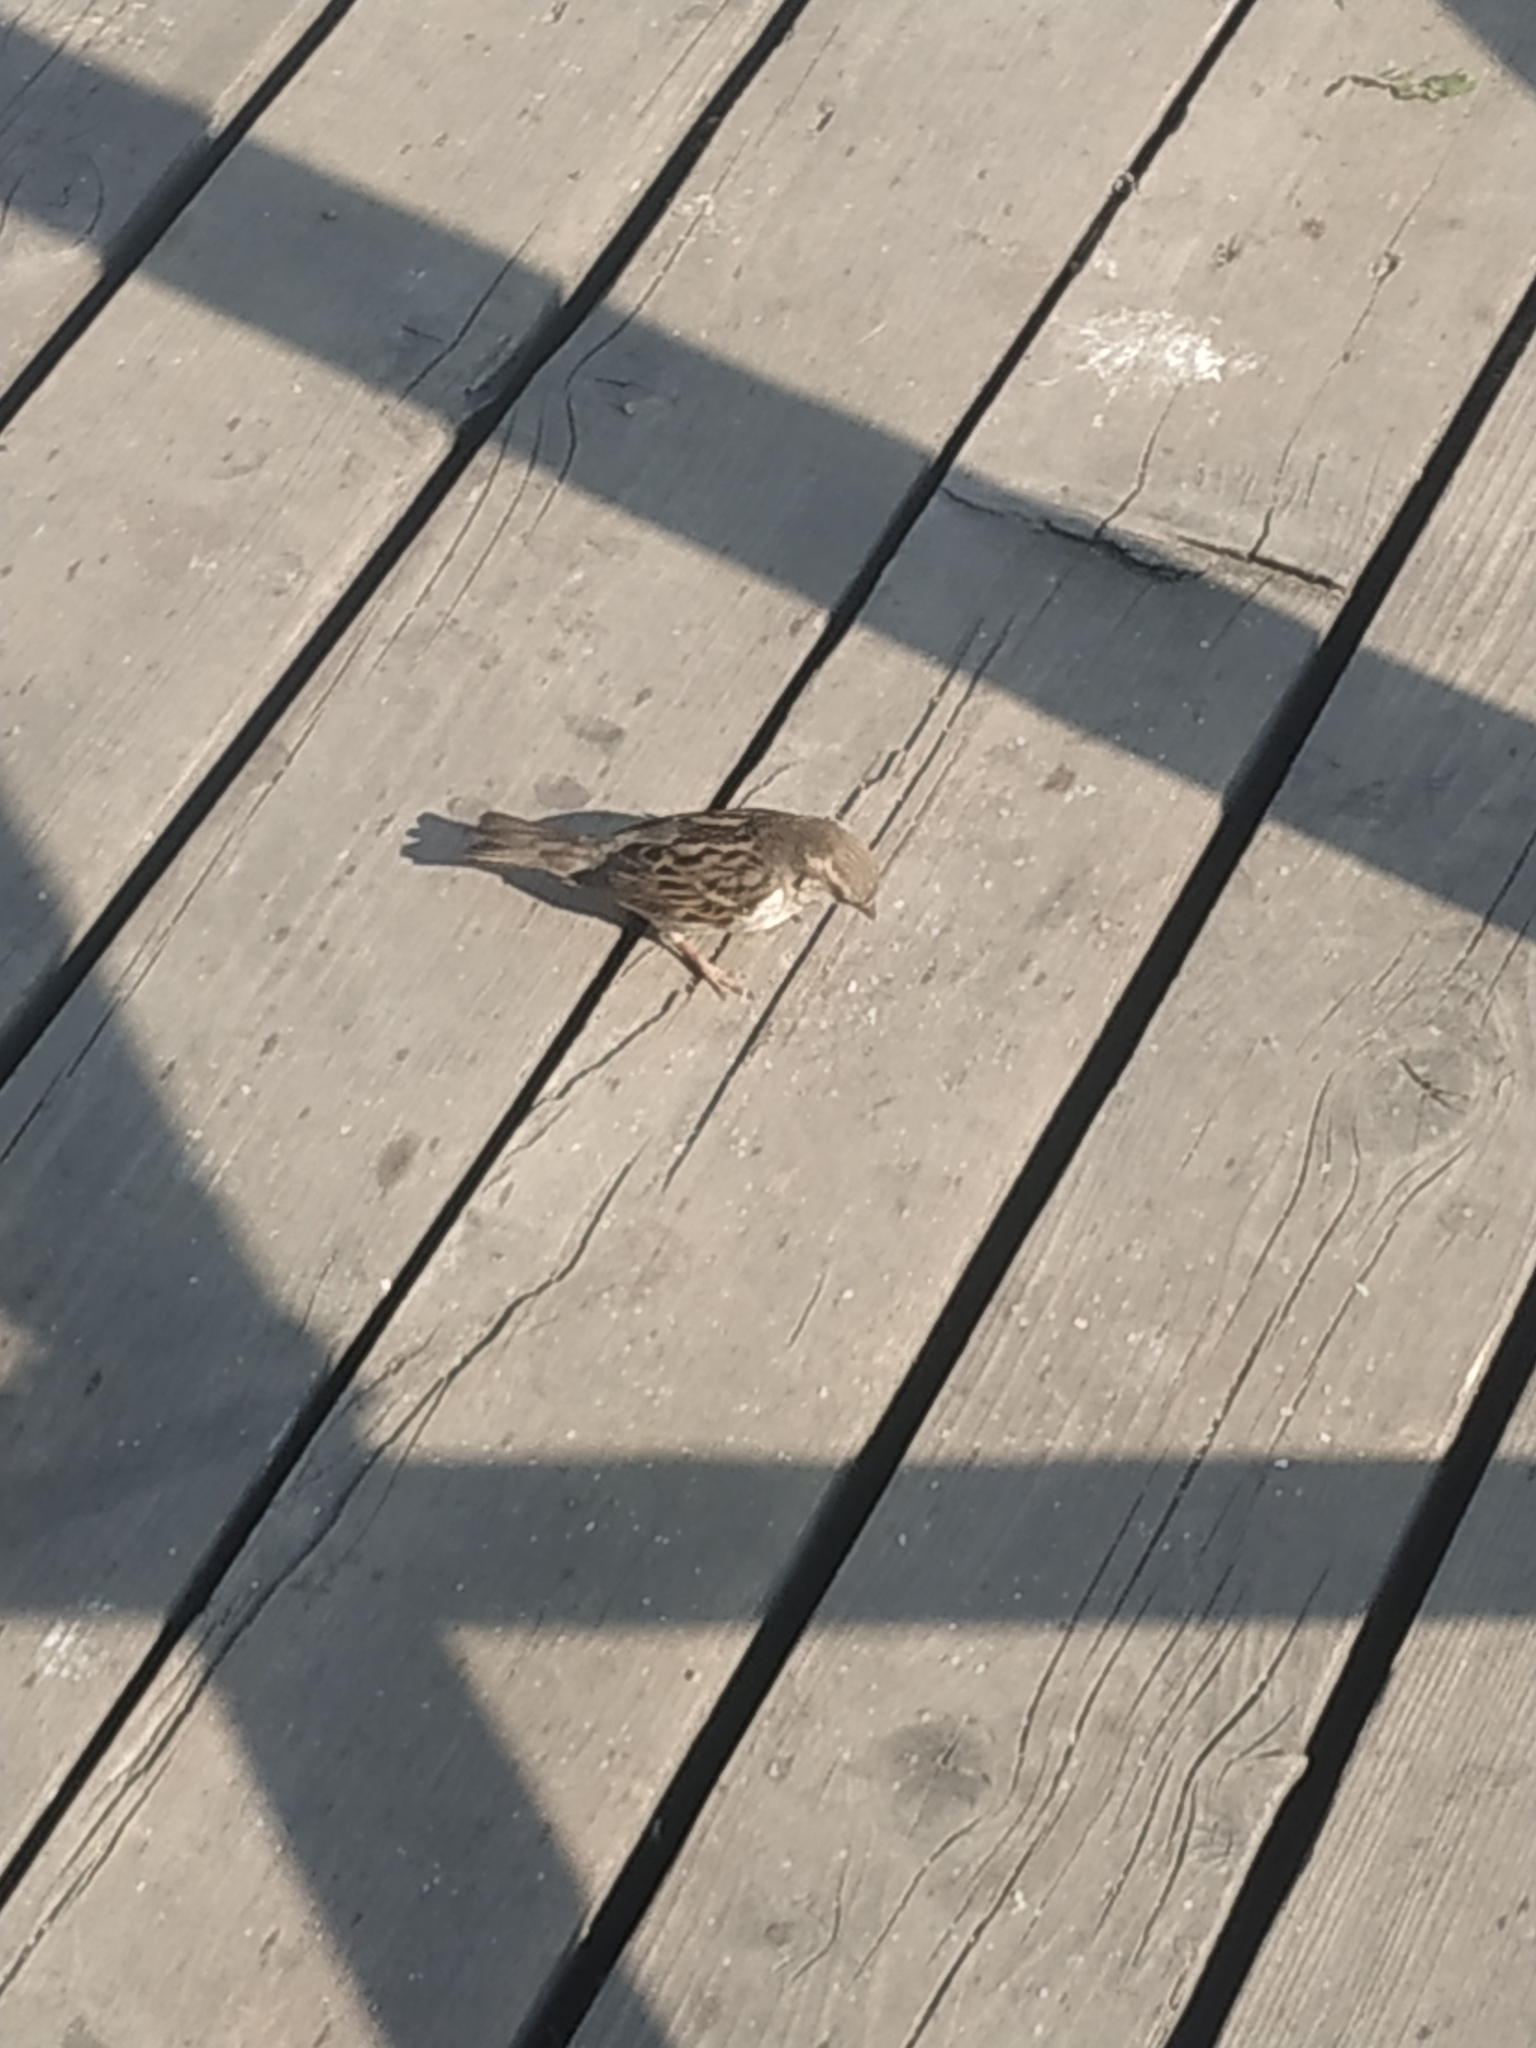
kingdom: Animalia
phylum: Chordata
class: Aves
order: Passeriformes
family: Passeridae
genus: Passer
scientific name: Passer domesticus
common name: House sparrow
